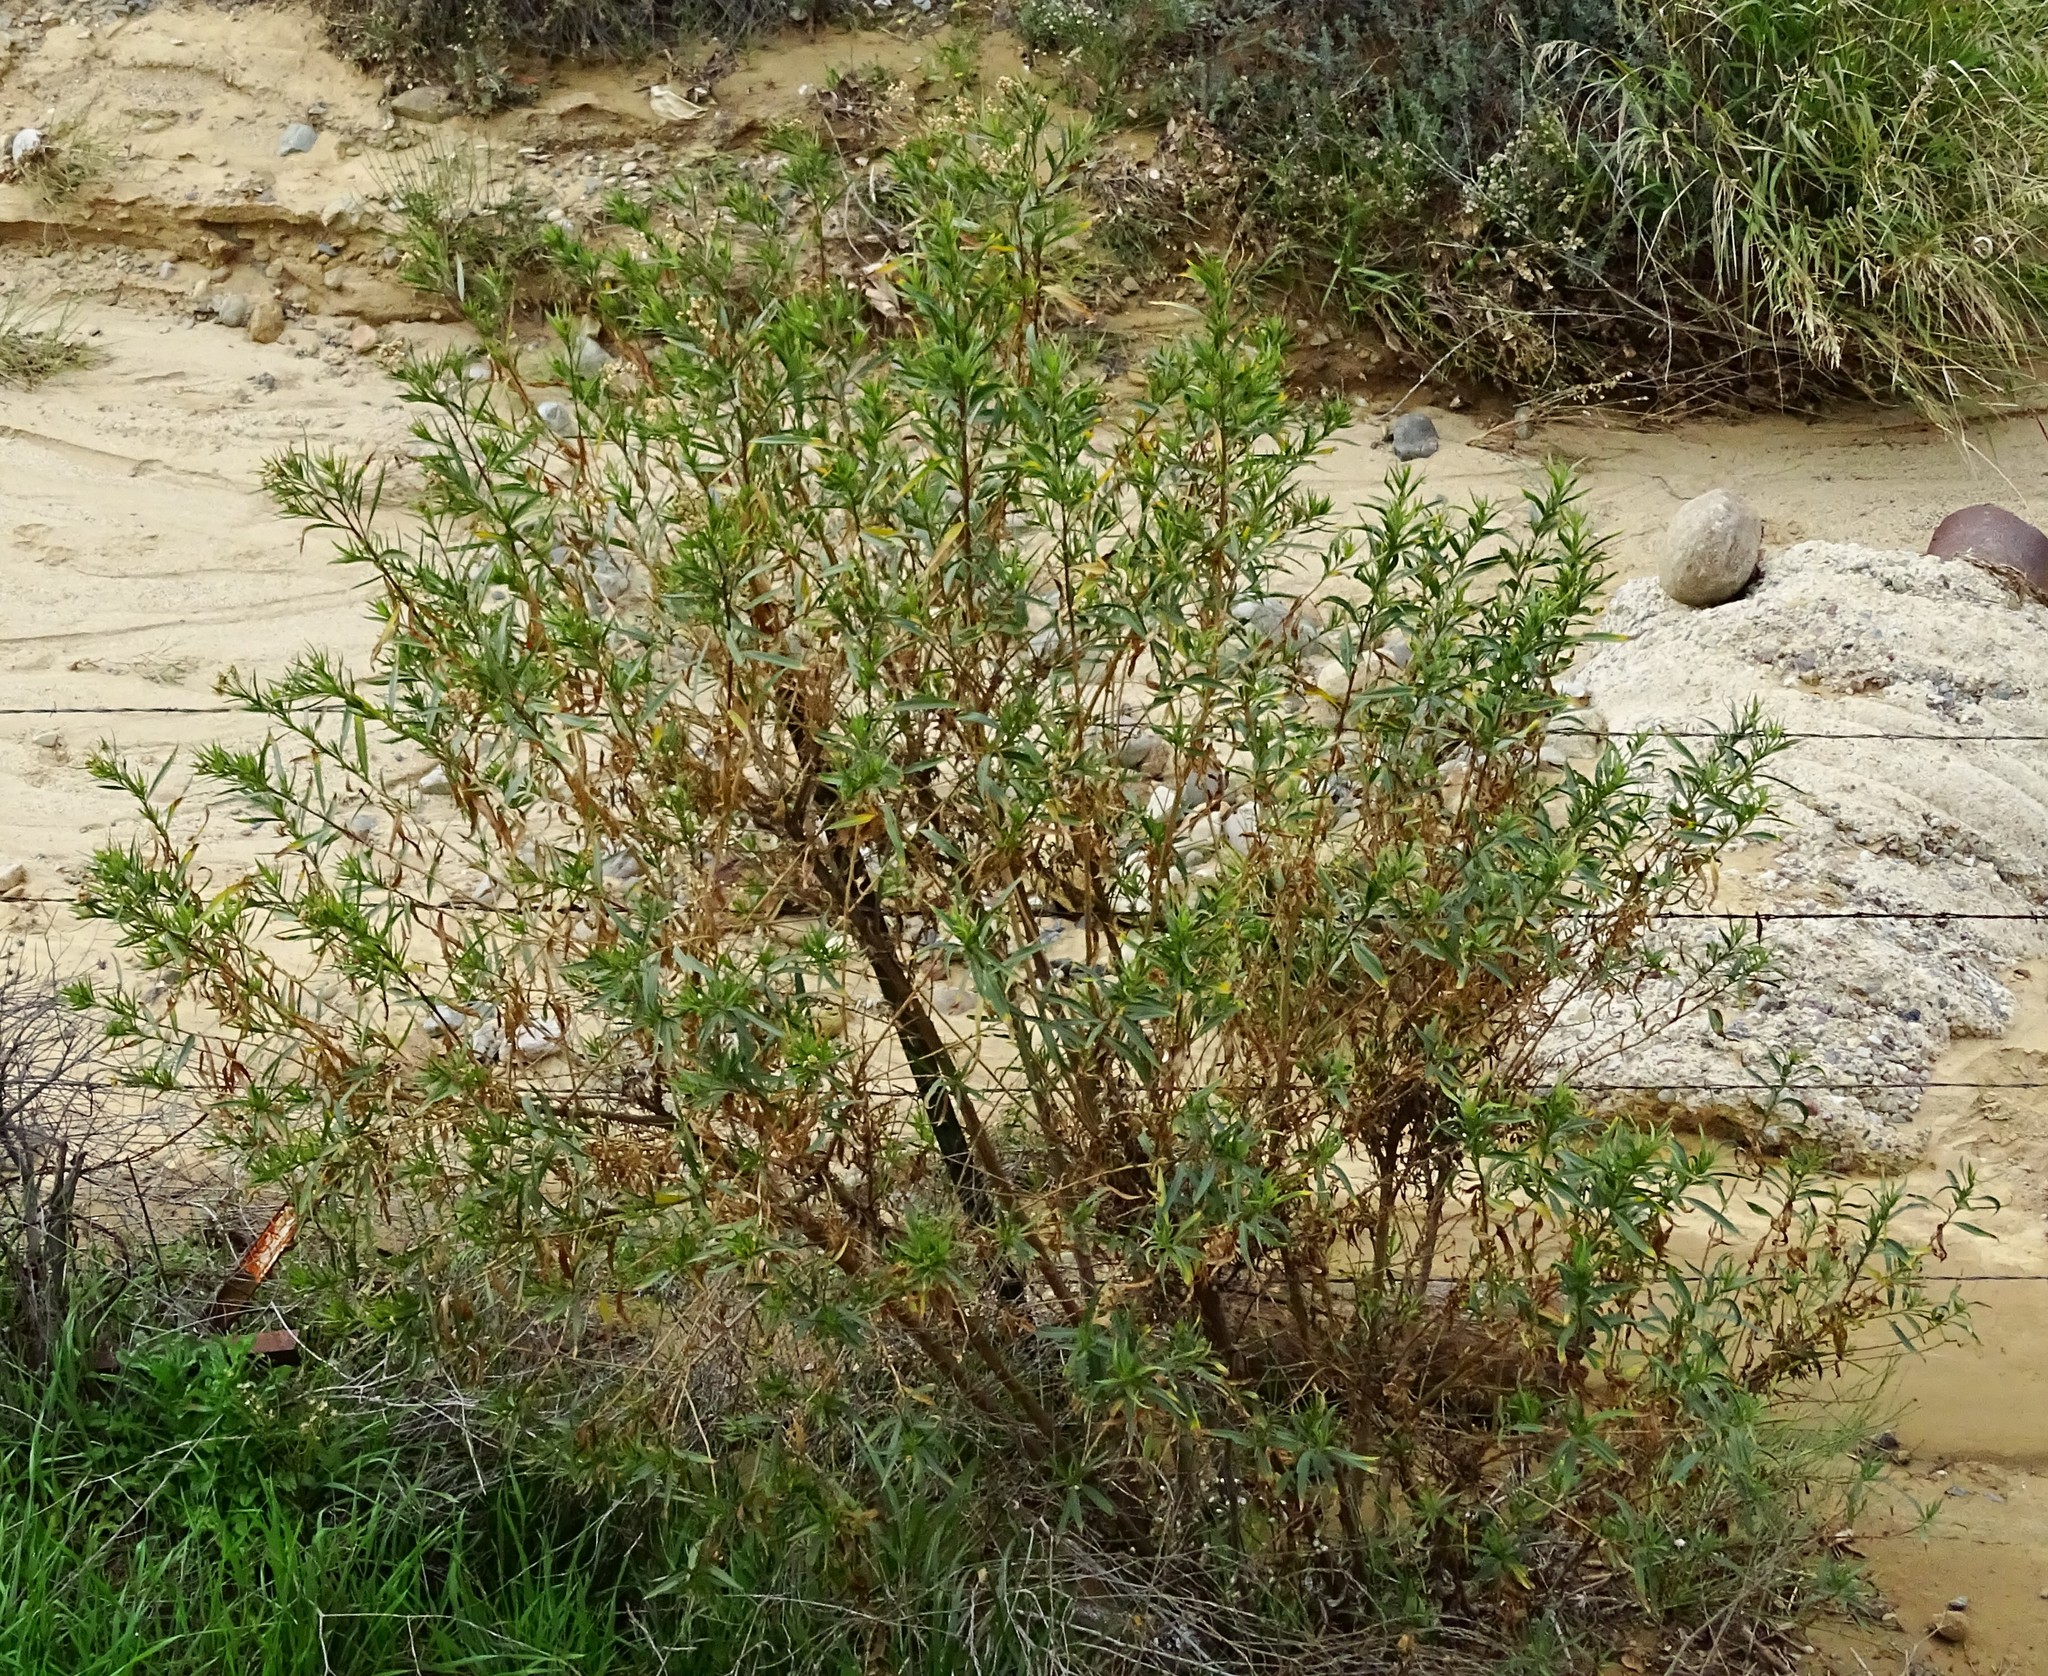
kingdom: Plantae
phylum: Tracheophyta
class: Magnoliopsida
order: Asterales
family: Asteraceae
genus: Baccharis
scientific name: Baccharis salicifolia
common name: Sticky baccharis
